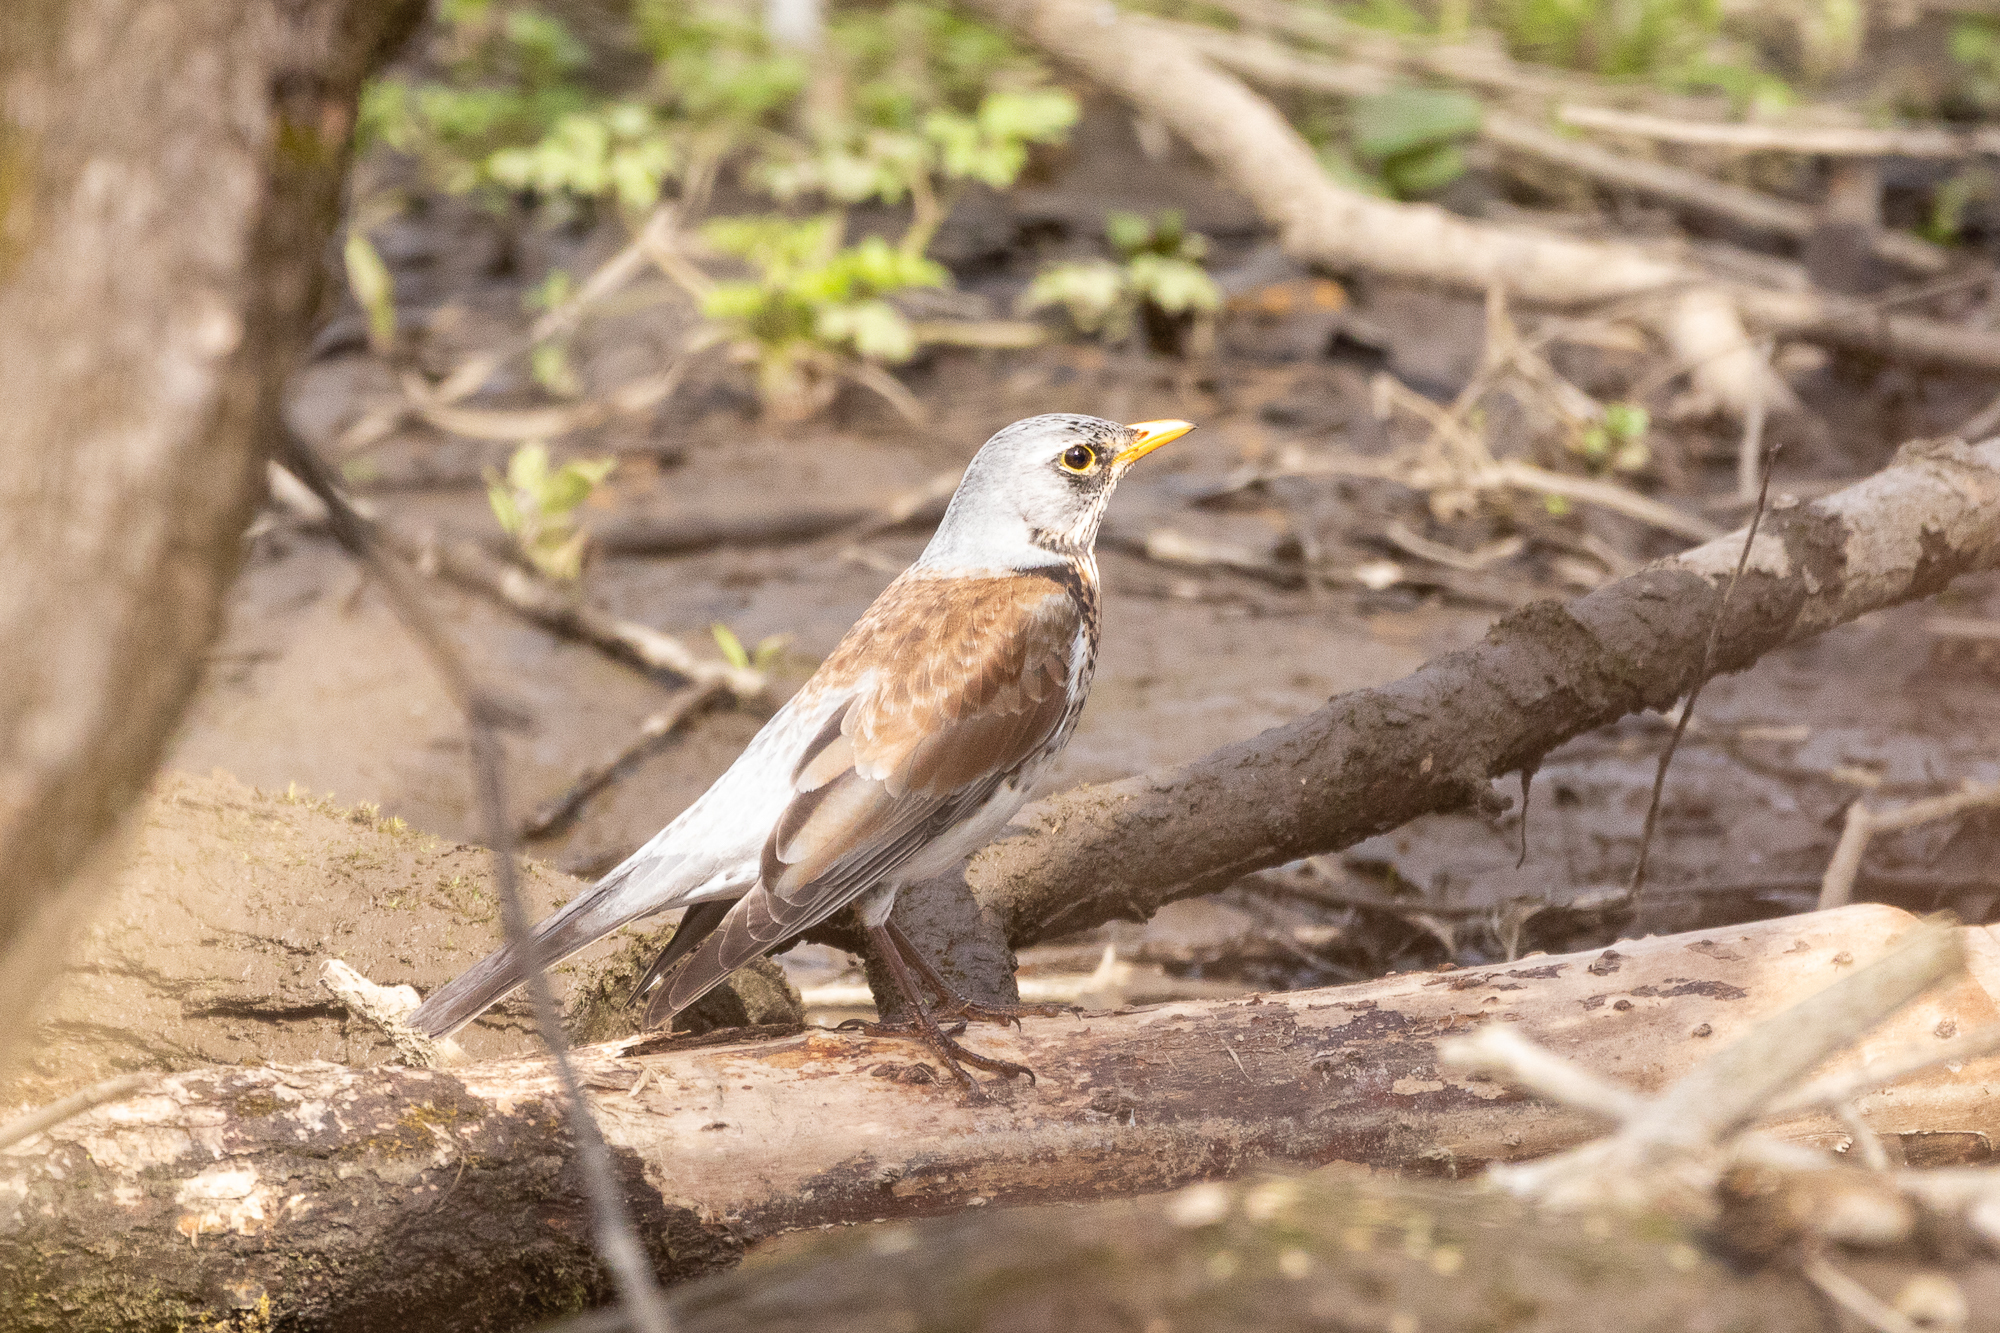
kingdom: Animalia
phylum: Chordata
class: Aves
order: Passeriformes
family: Turdidae
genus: Turdus
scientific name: Turdus pilaris
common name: Fieldfare
